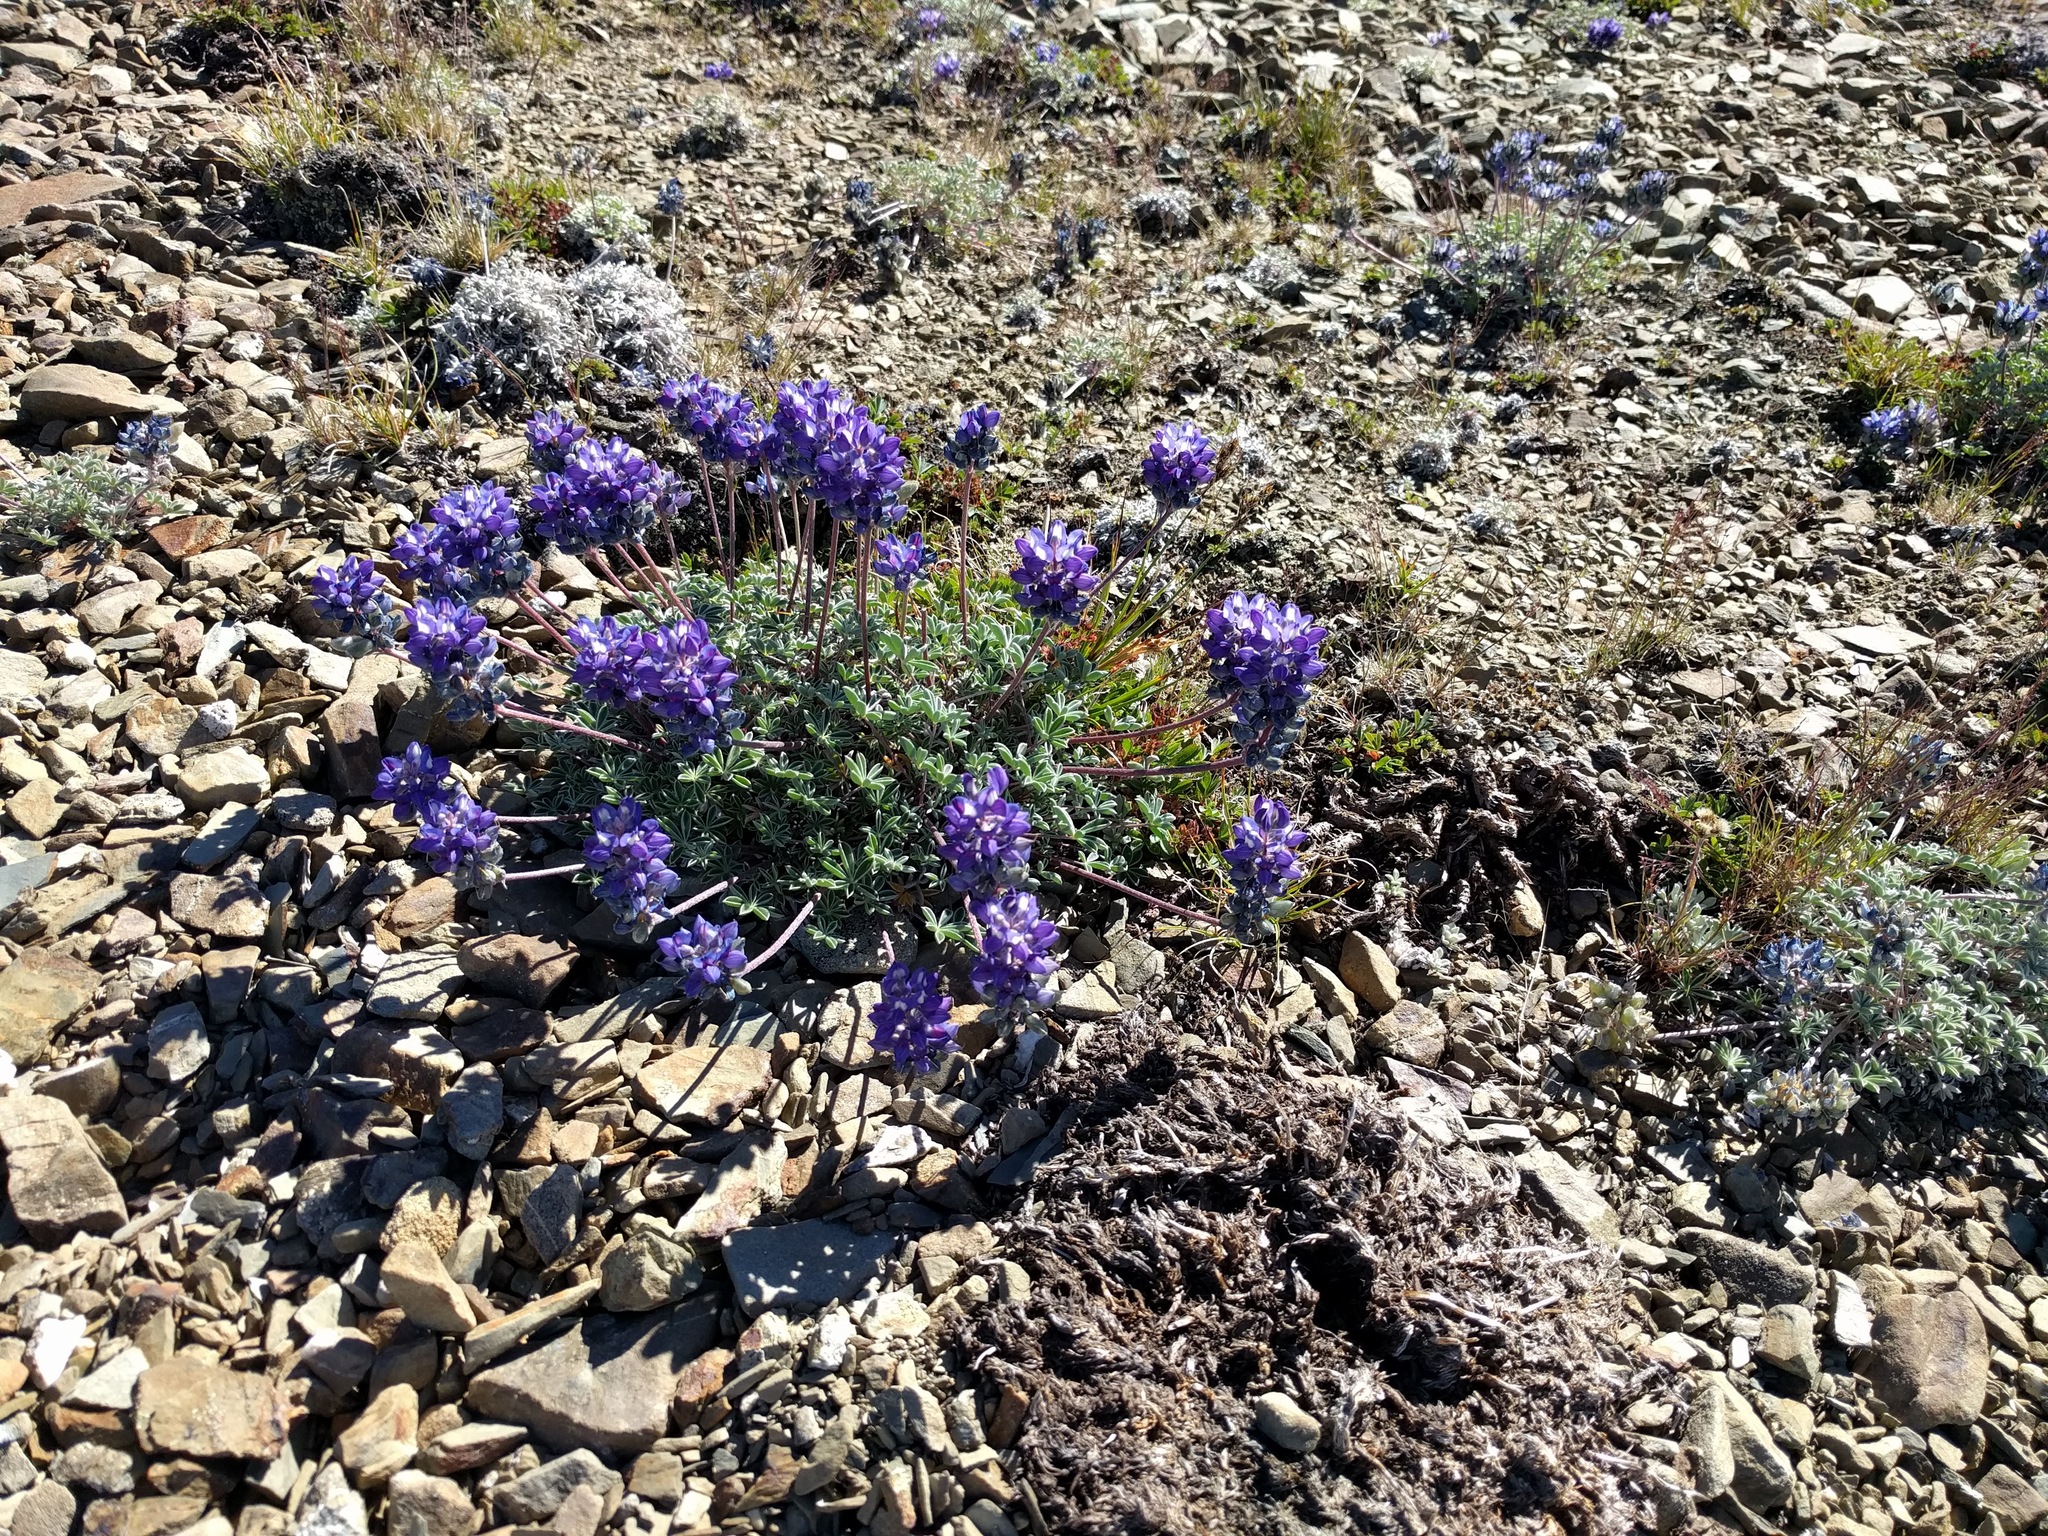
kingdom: Plantae
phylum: Tracheophyta
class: Magnoliopsida
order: Fabales
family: Fabaceae
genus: Lupinus
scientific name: Lupinus sellulus
